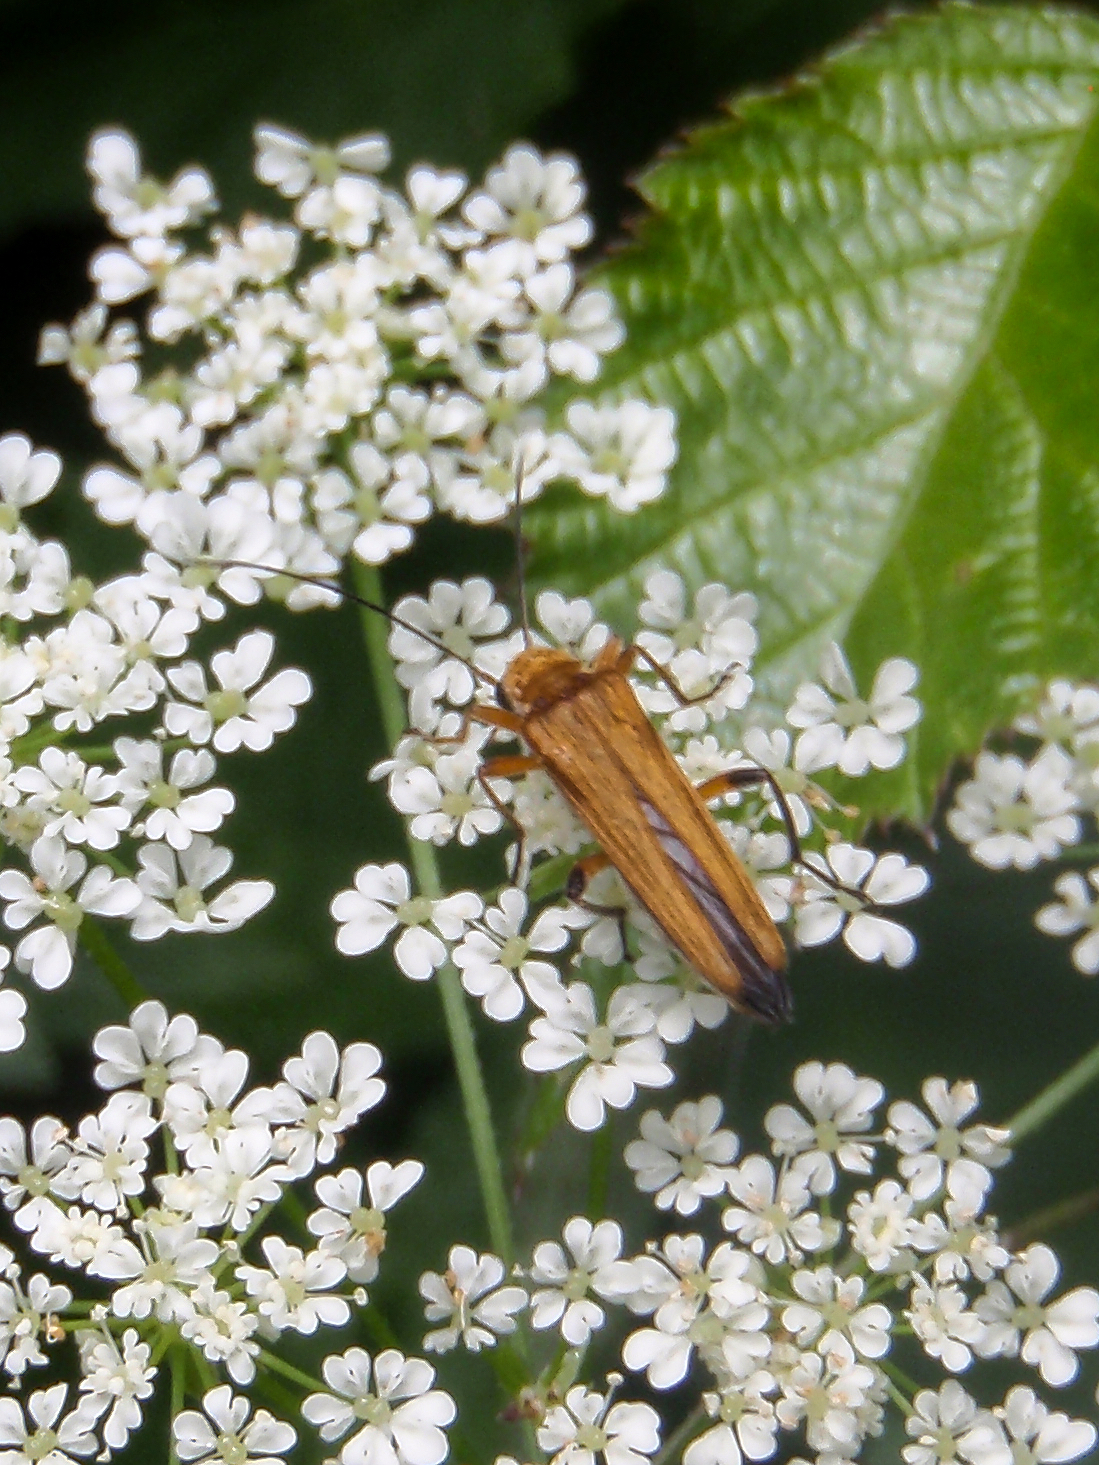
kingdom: Animalia
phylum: Arthropoda
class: Insecta
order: Coleoptera
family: Oedemeridae
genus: Oedemera
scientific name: Oedemera podagrariae
